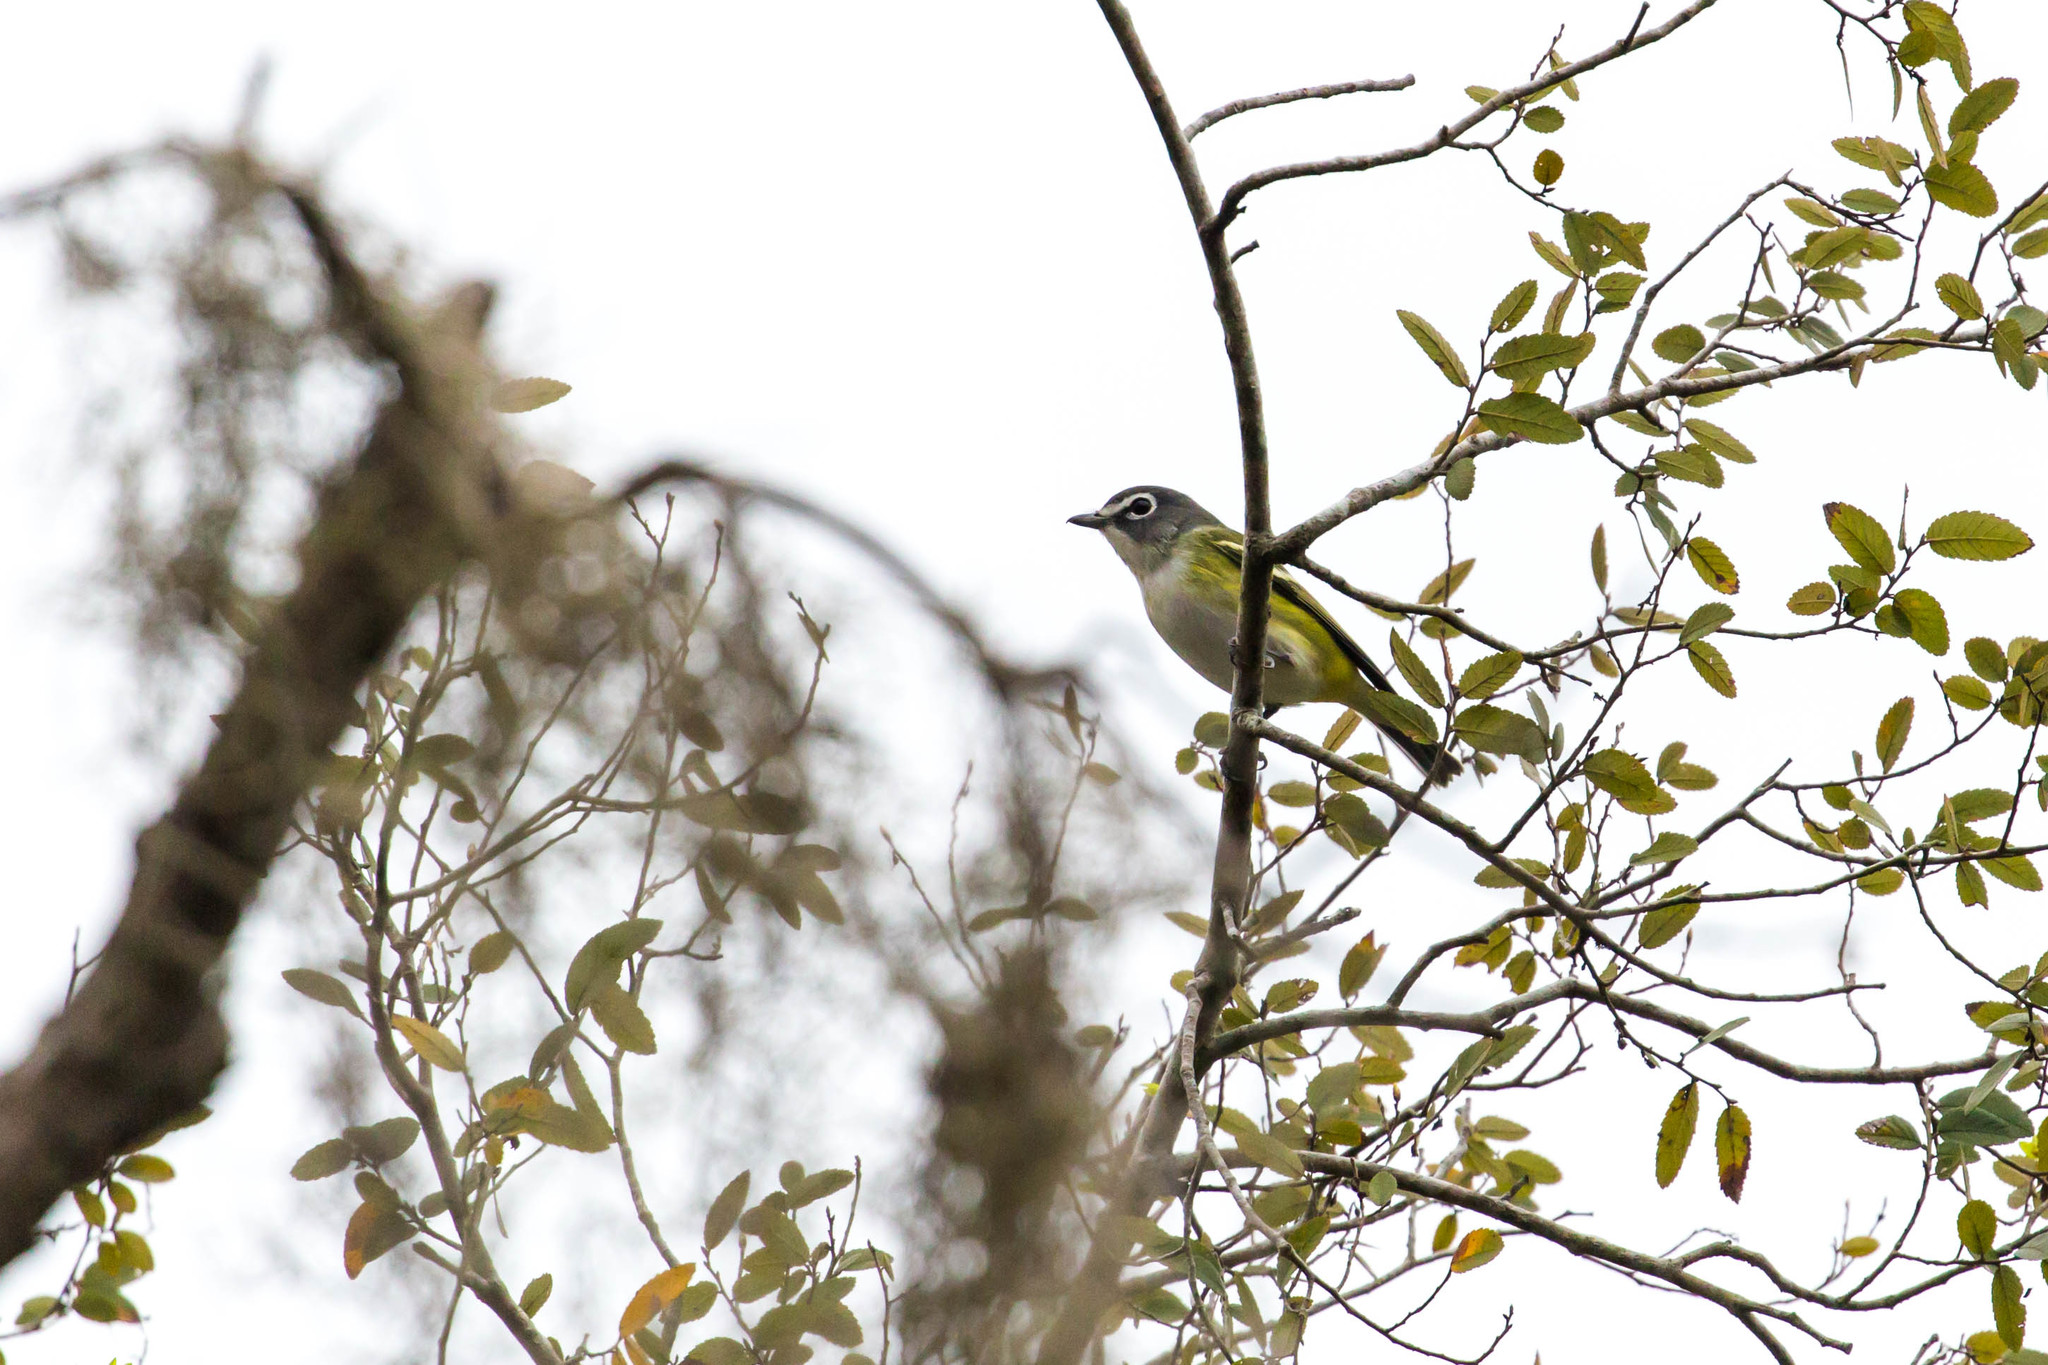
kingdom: Animalia
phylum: Chordata
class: Aves
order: Passeriformes
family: Vireonidae
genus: Vireo
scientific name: Vireo solitarius
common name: Blue-headed vireo
